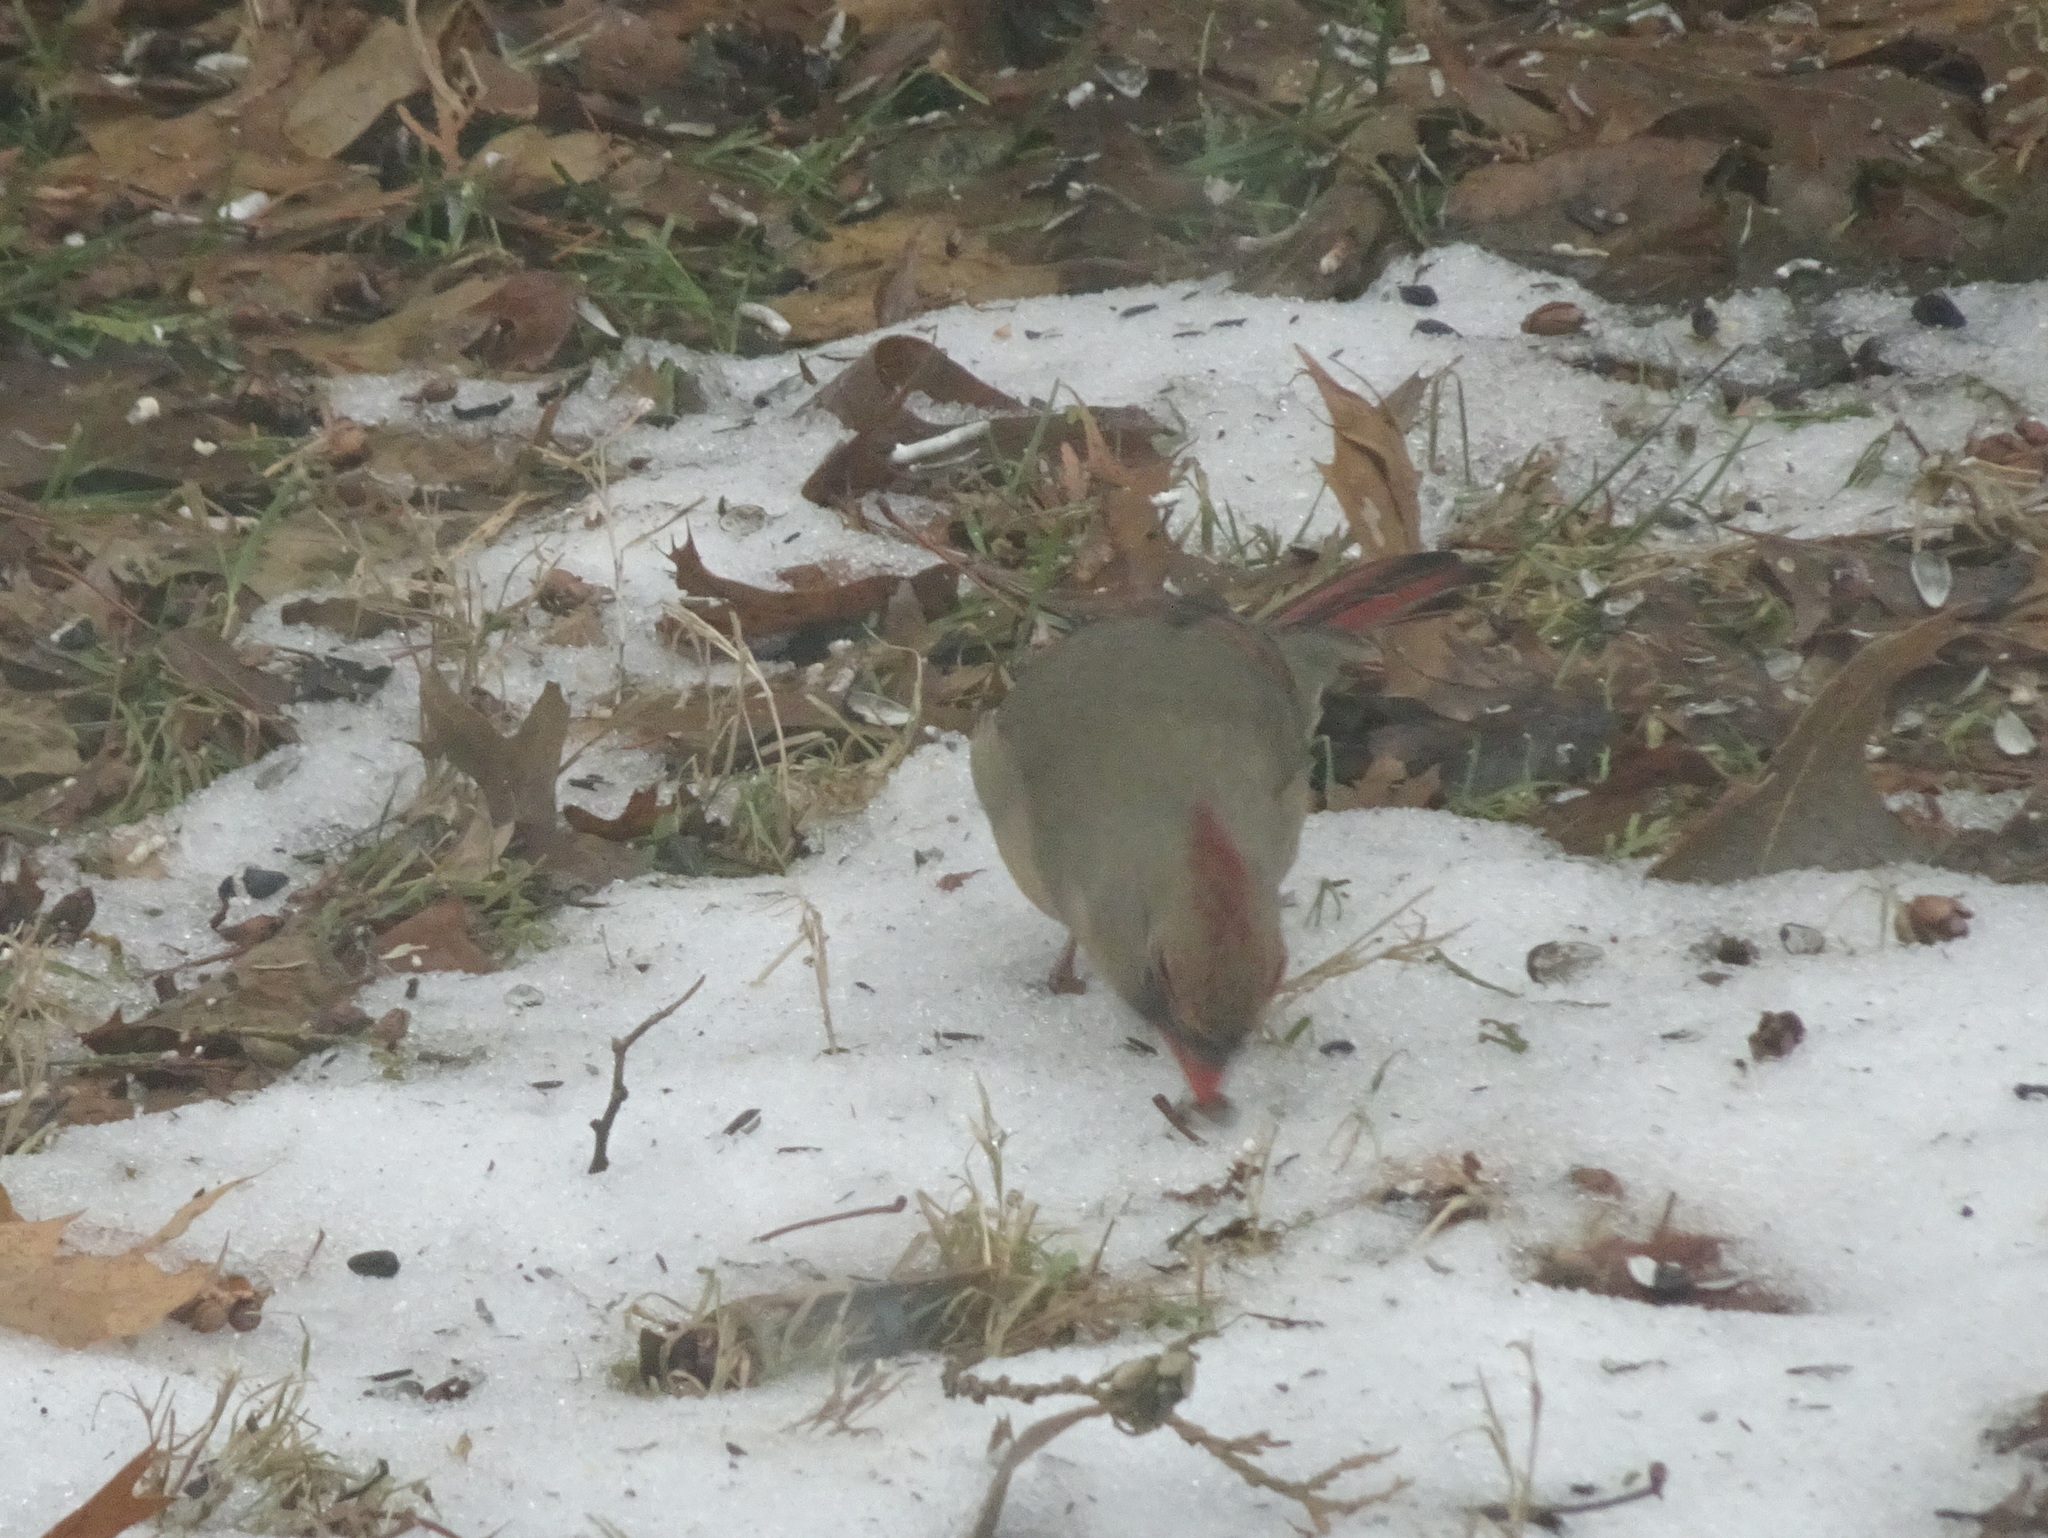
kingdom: Animalia
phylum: Chordata
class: Aves
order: Passeriformes
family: Cardinalidae
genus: Cardinalis
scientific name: Cardinalis cardinalis
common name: Northern cardinal
